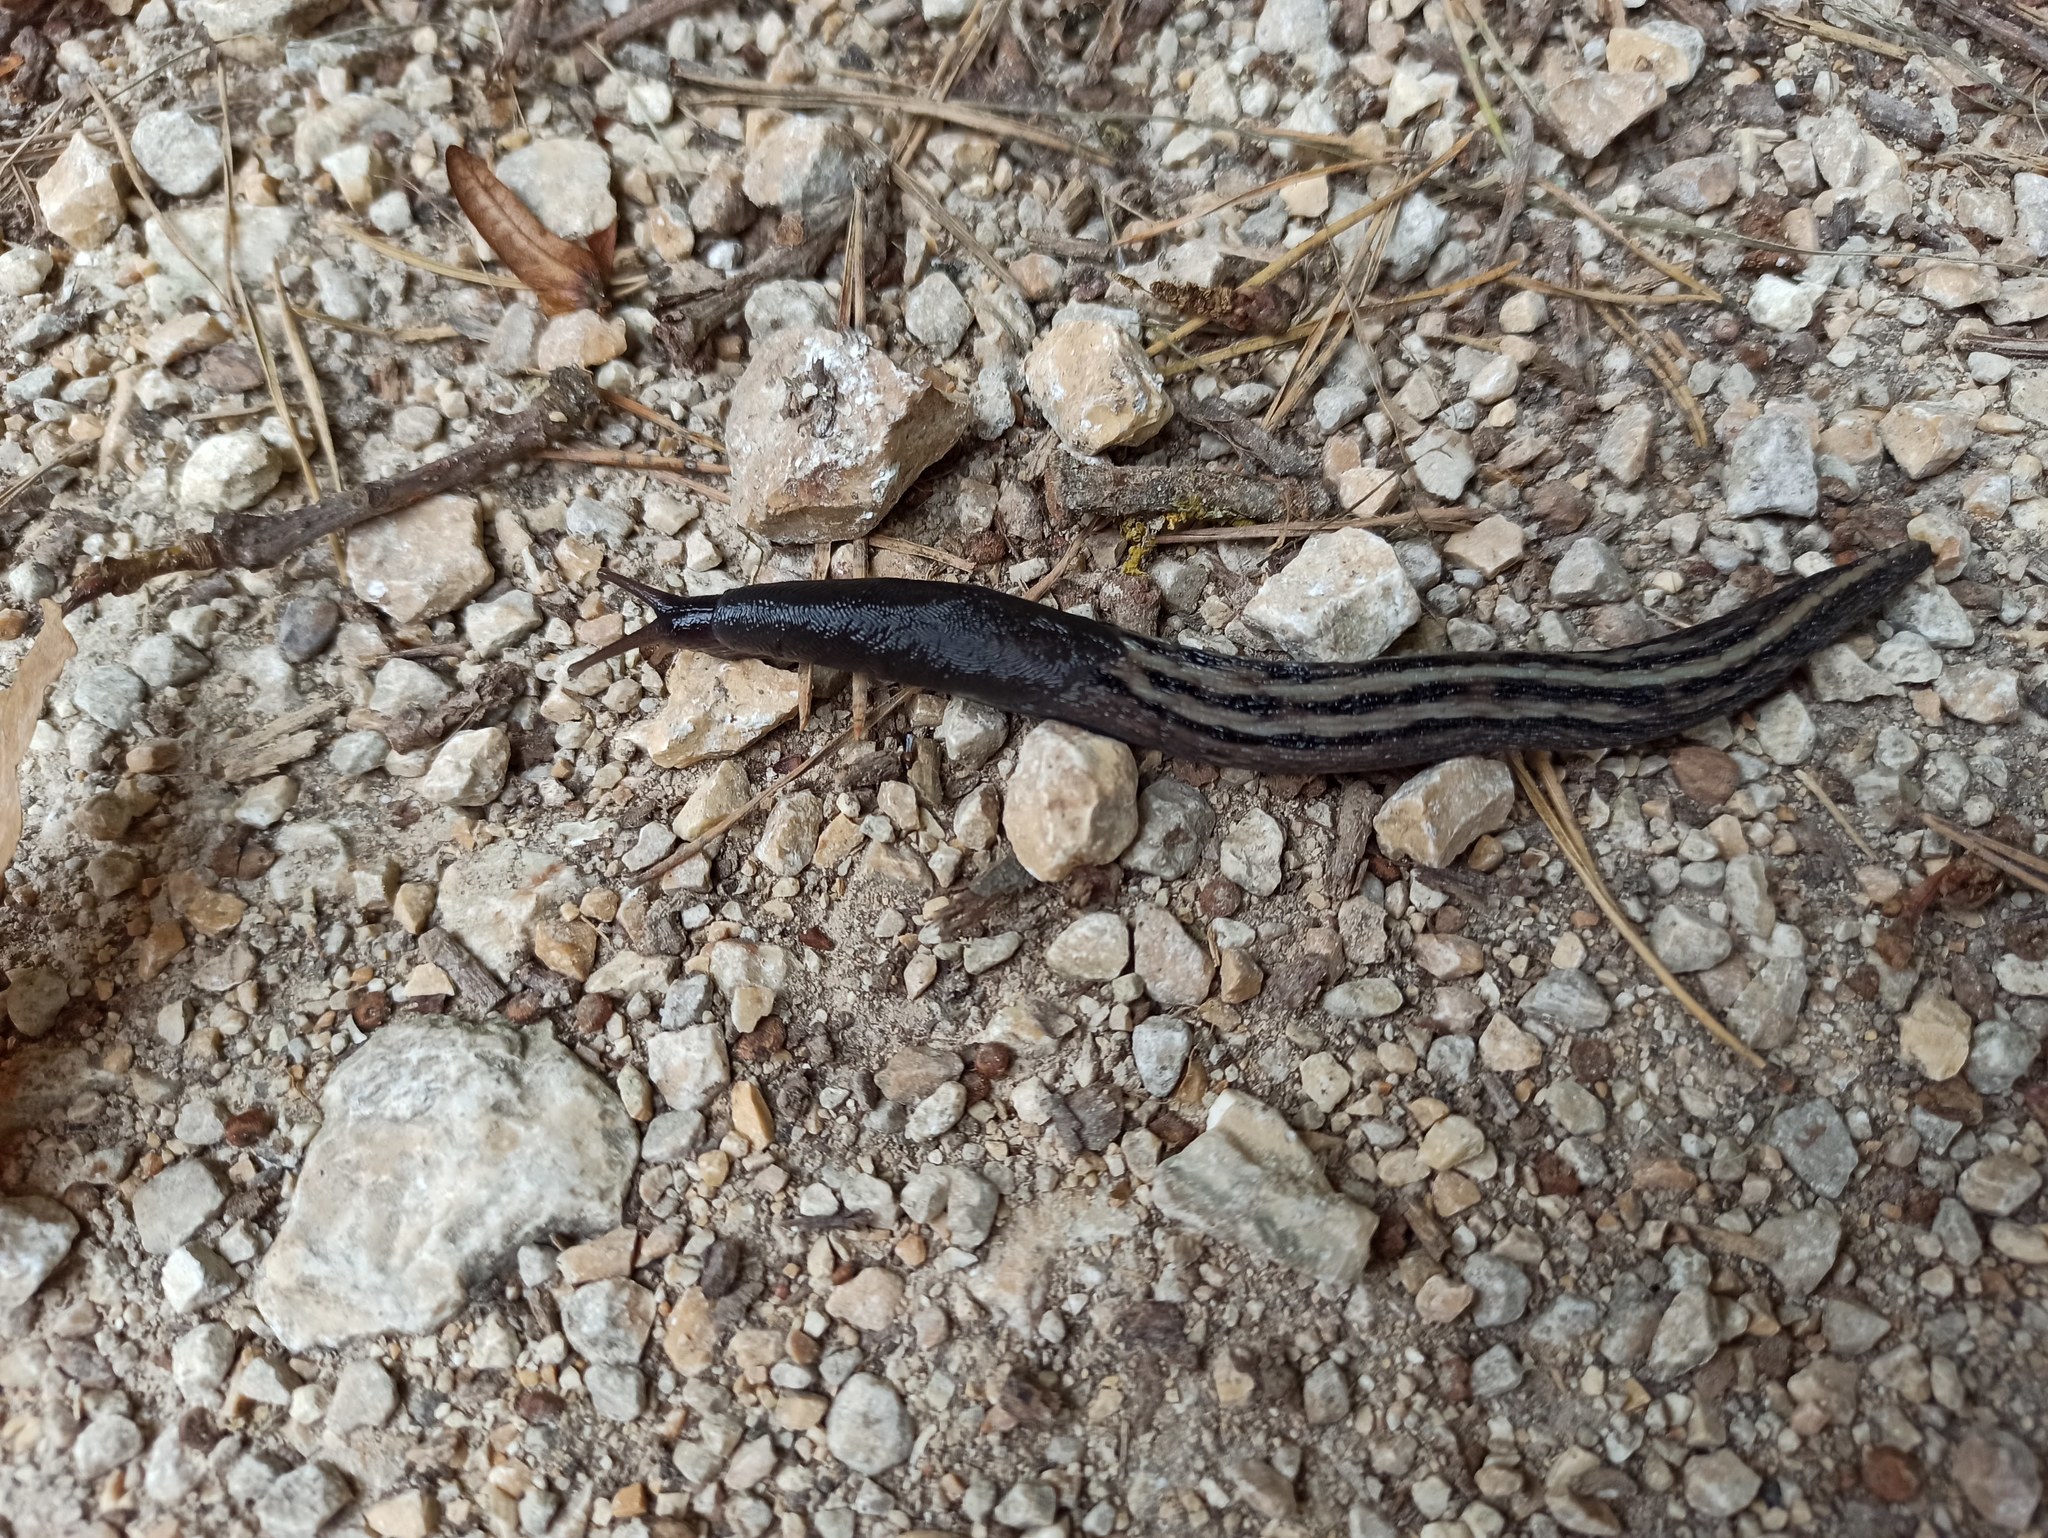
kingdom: Animalia
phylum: Mollusca
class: Gastropoda
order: Stylommatophora
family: Limacidae
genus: Limax
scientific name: Limax cinereoniger
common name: Ash-black slug
